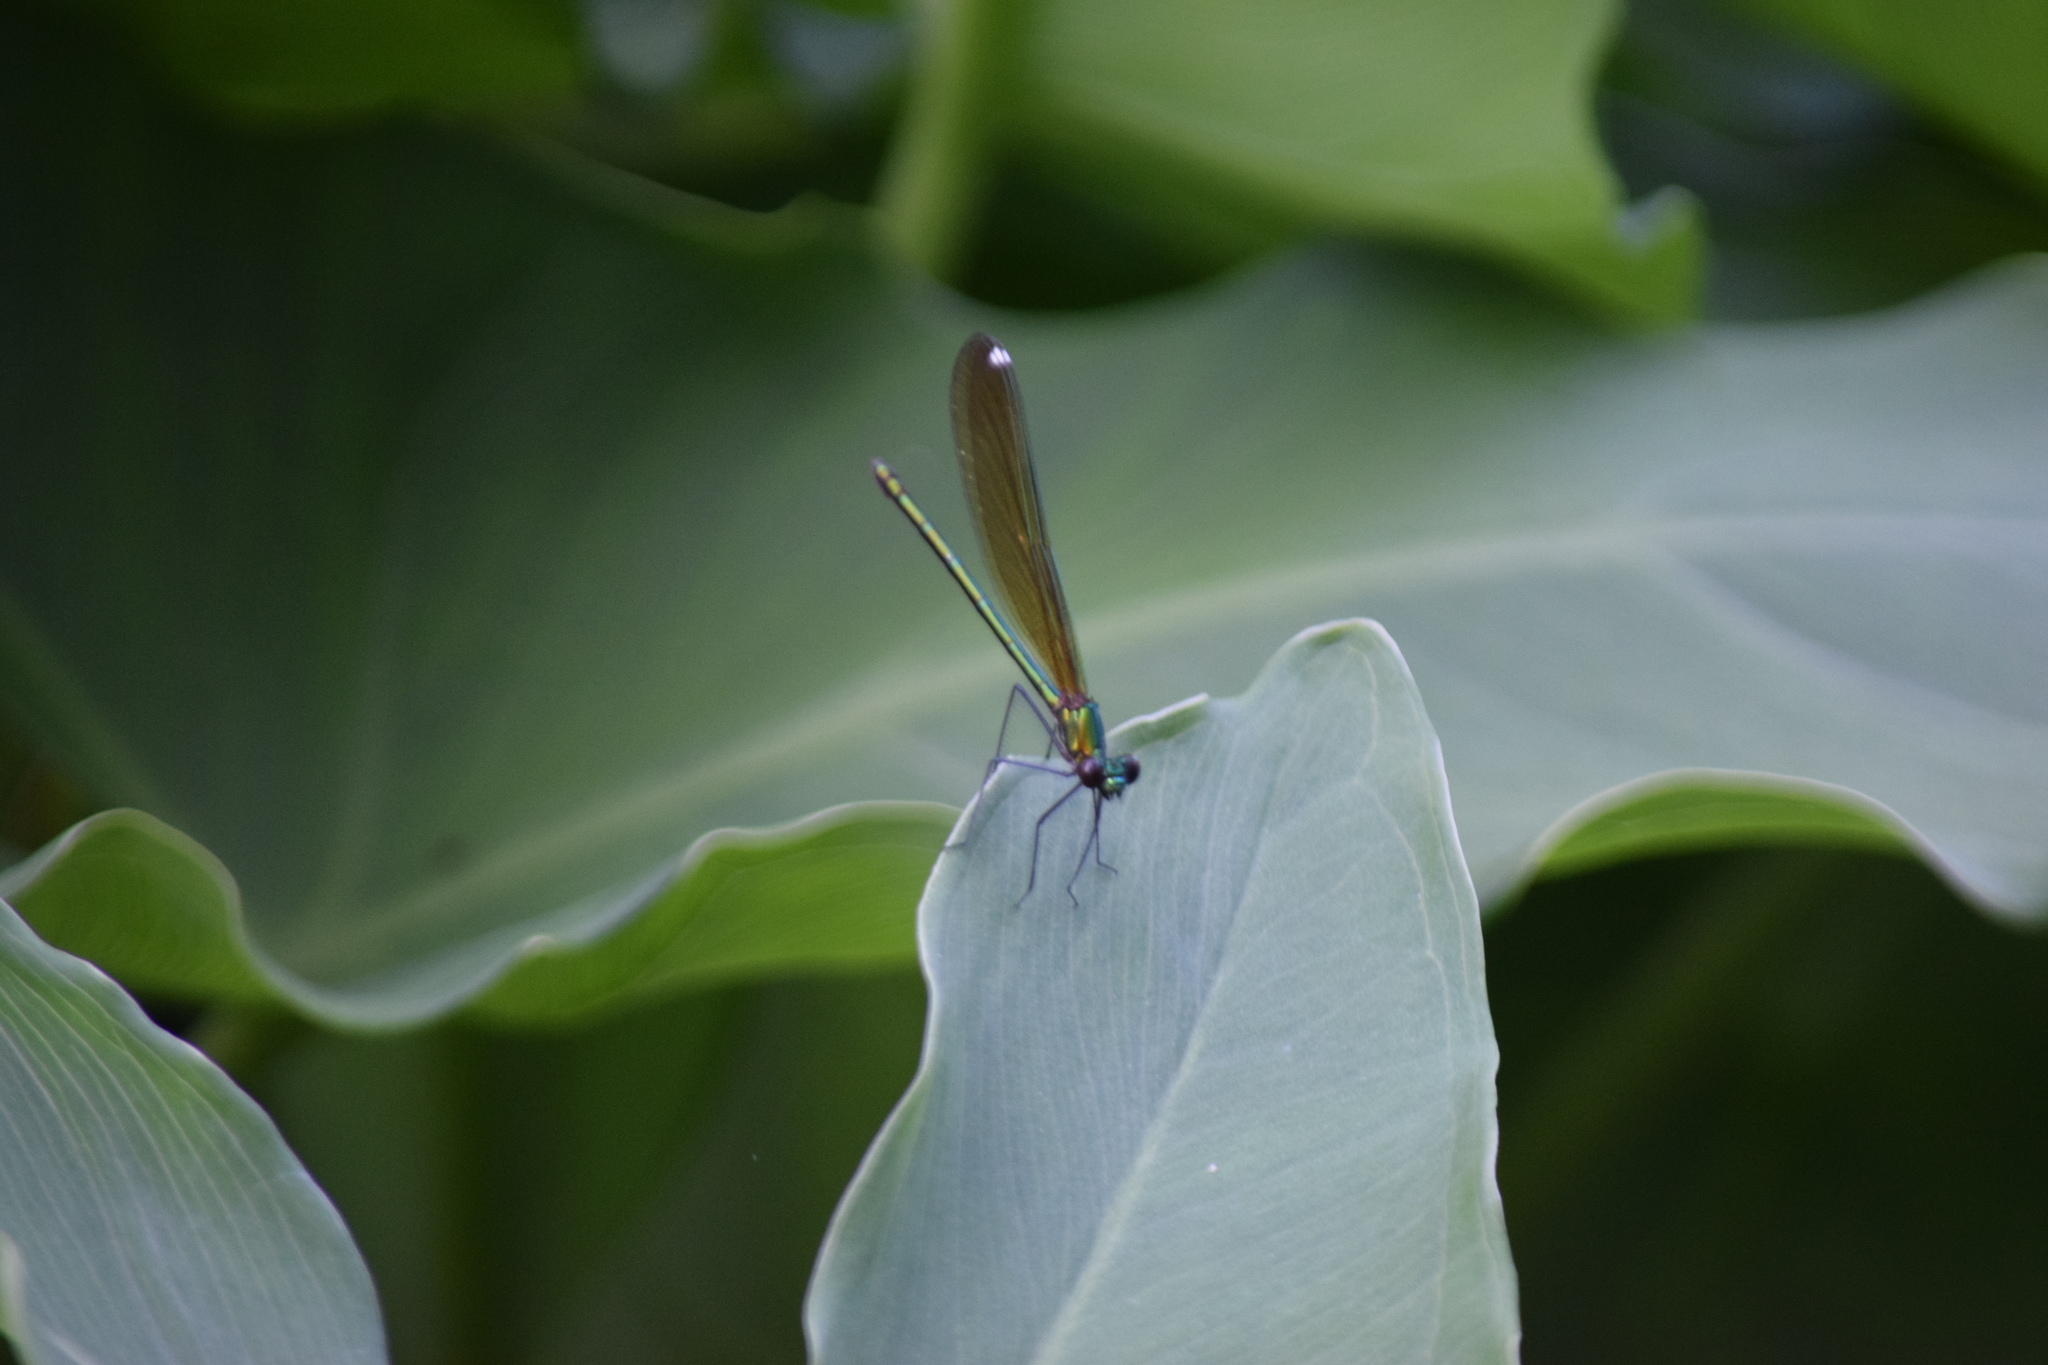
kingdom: Animalia
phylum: Arthropoda
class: Insecta
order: Odonata
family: Calopterygidae
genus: Calopteryx
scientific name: Calopteryx dimidiata
